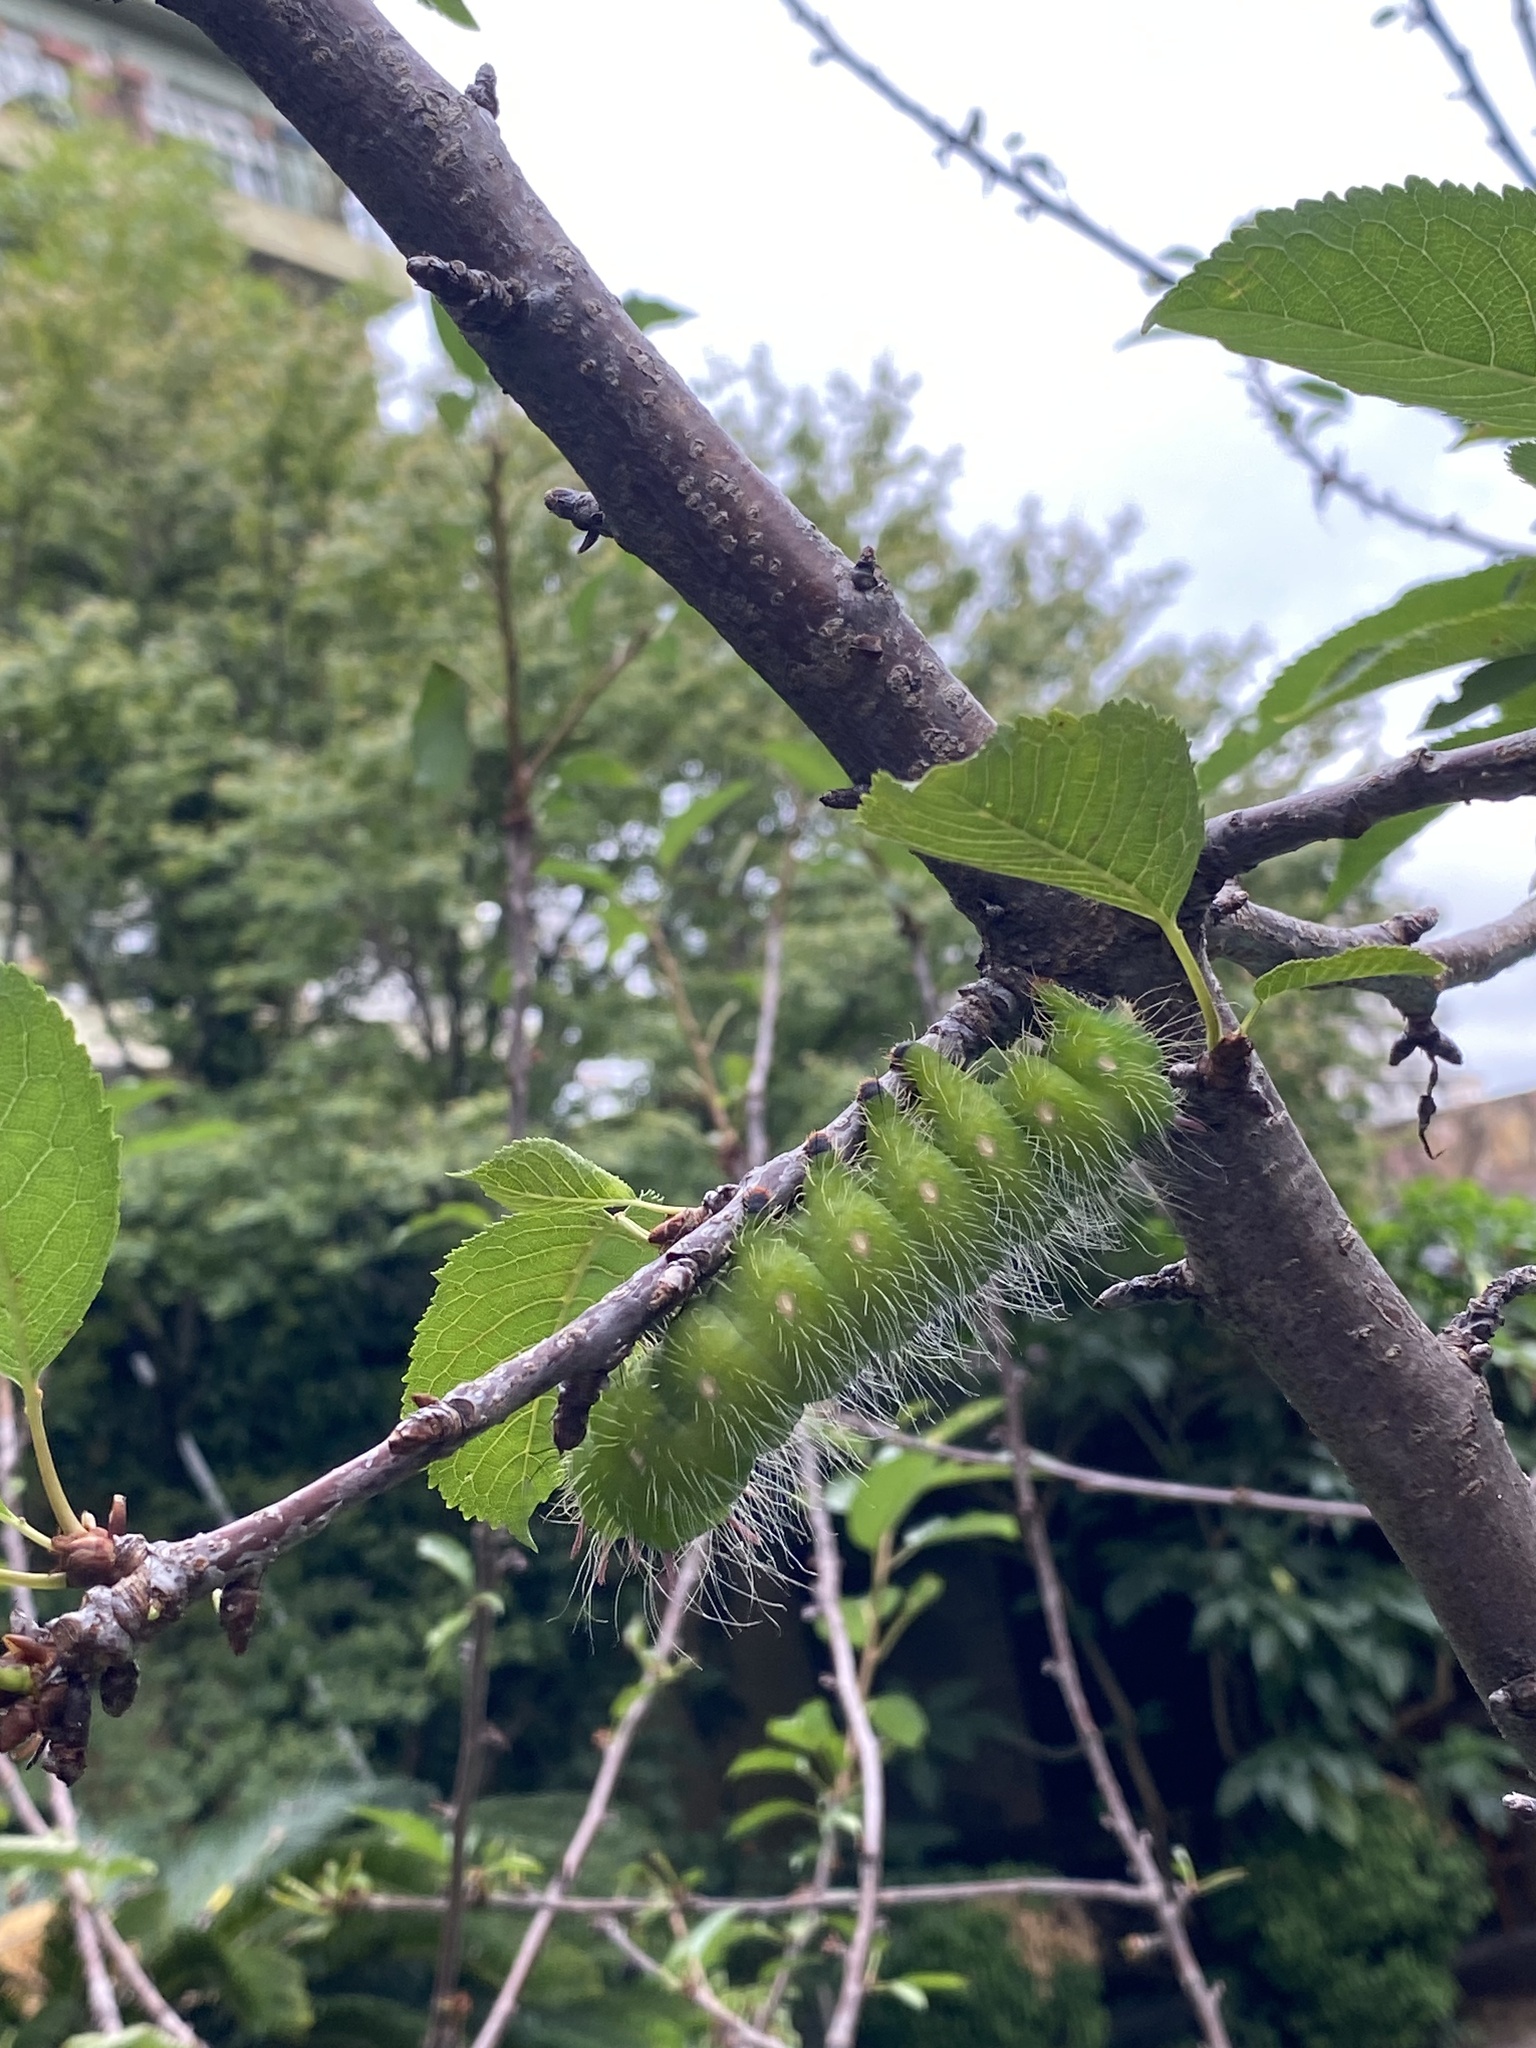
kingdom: Animalia
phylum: Arthropoda
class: Insecta
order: Lepidoptera
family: Saturniidae
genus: Eacles
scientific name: Eacles imperialis
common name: Imperial moth
